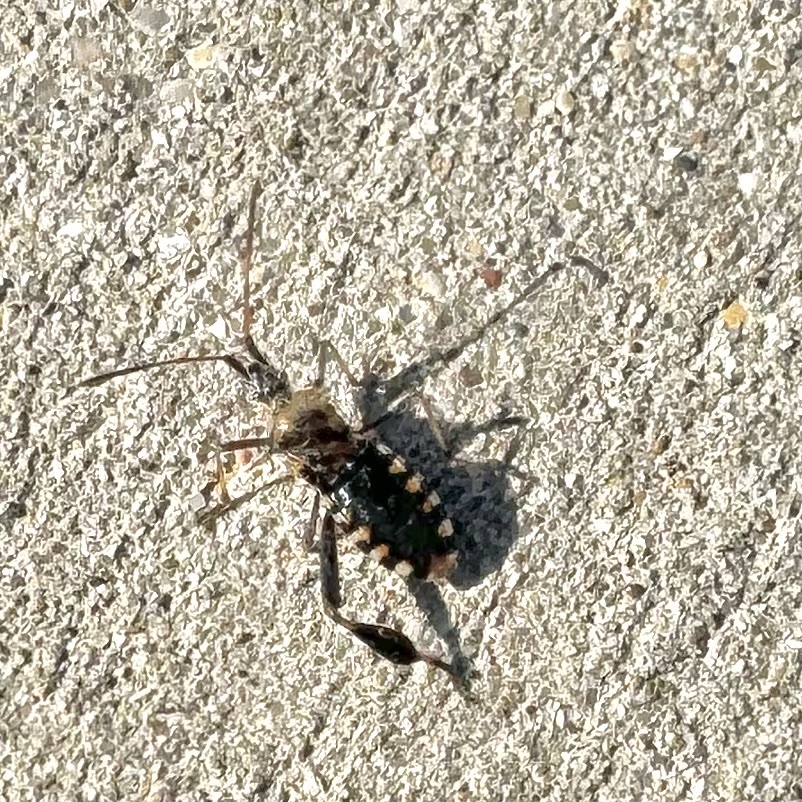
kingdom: Animalia
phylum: Arthropoda
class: Insecta
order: Hemiptera
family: Coreidae
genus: Leptoglossus
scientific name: Leptoglossus clypealis
